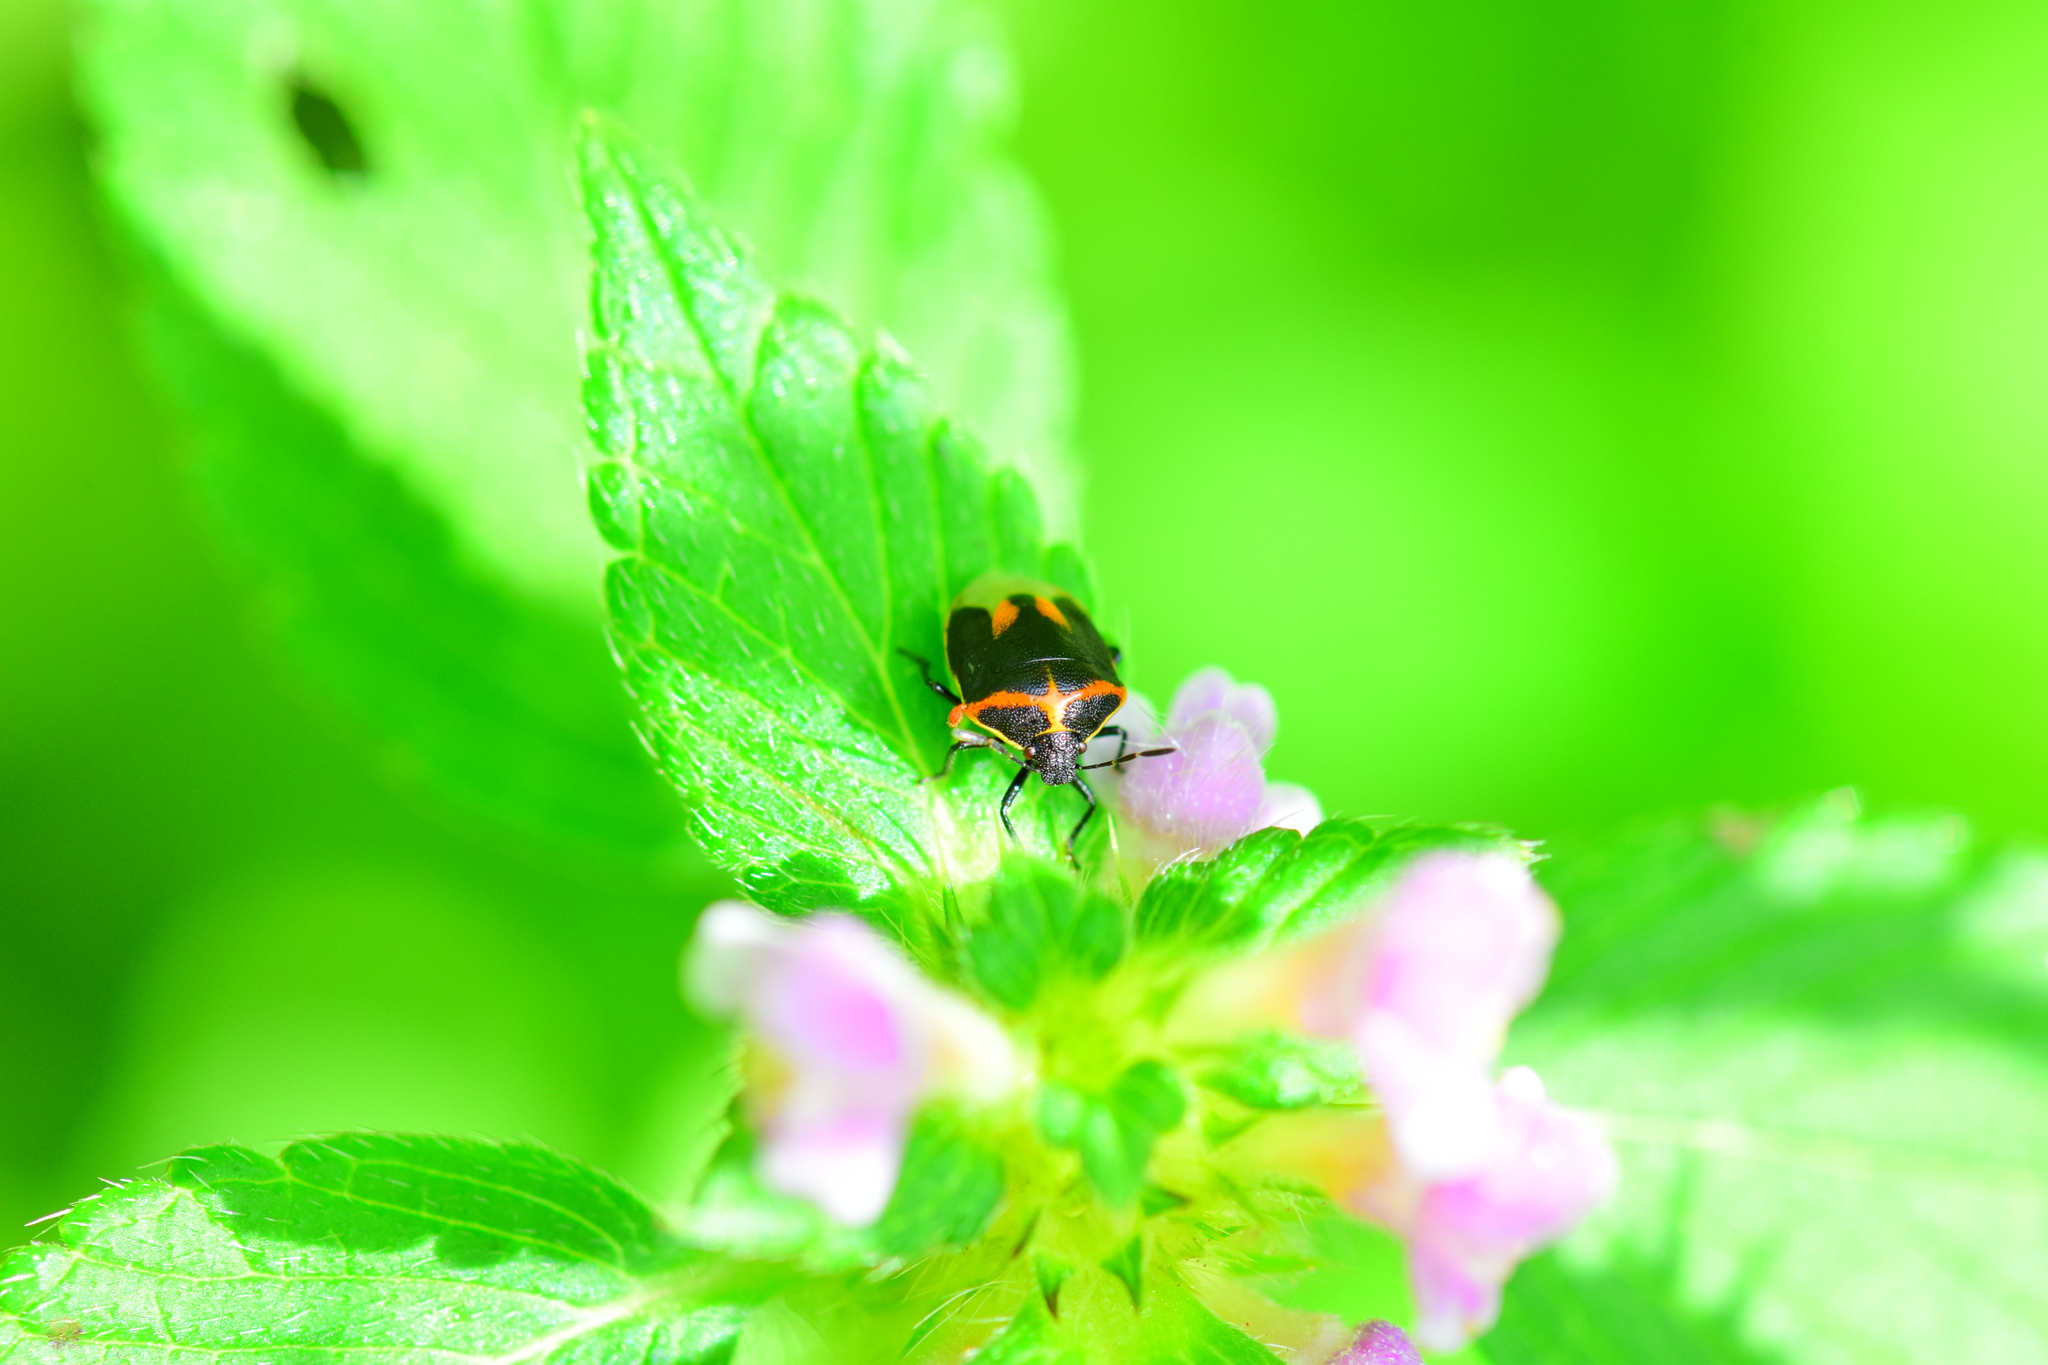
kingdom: Animalia
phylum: Arthropoda
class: Insecta
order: Hemiptera
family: Pentatomidae
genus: Cosmopepla
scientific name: Cosmopepla lintneriana
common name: Twice-stabbed stink bug
